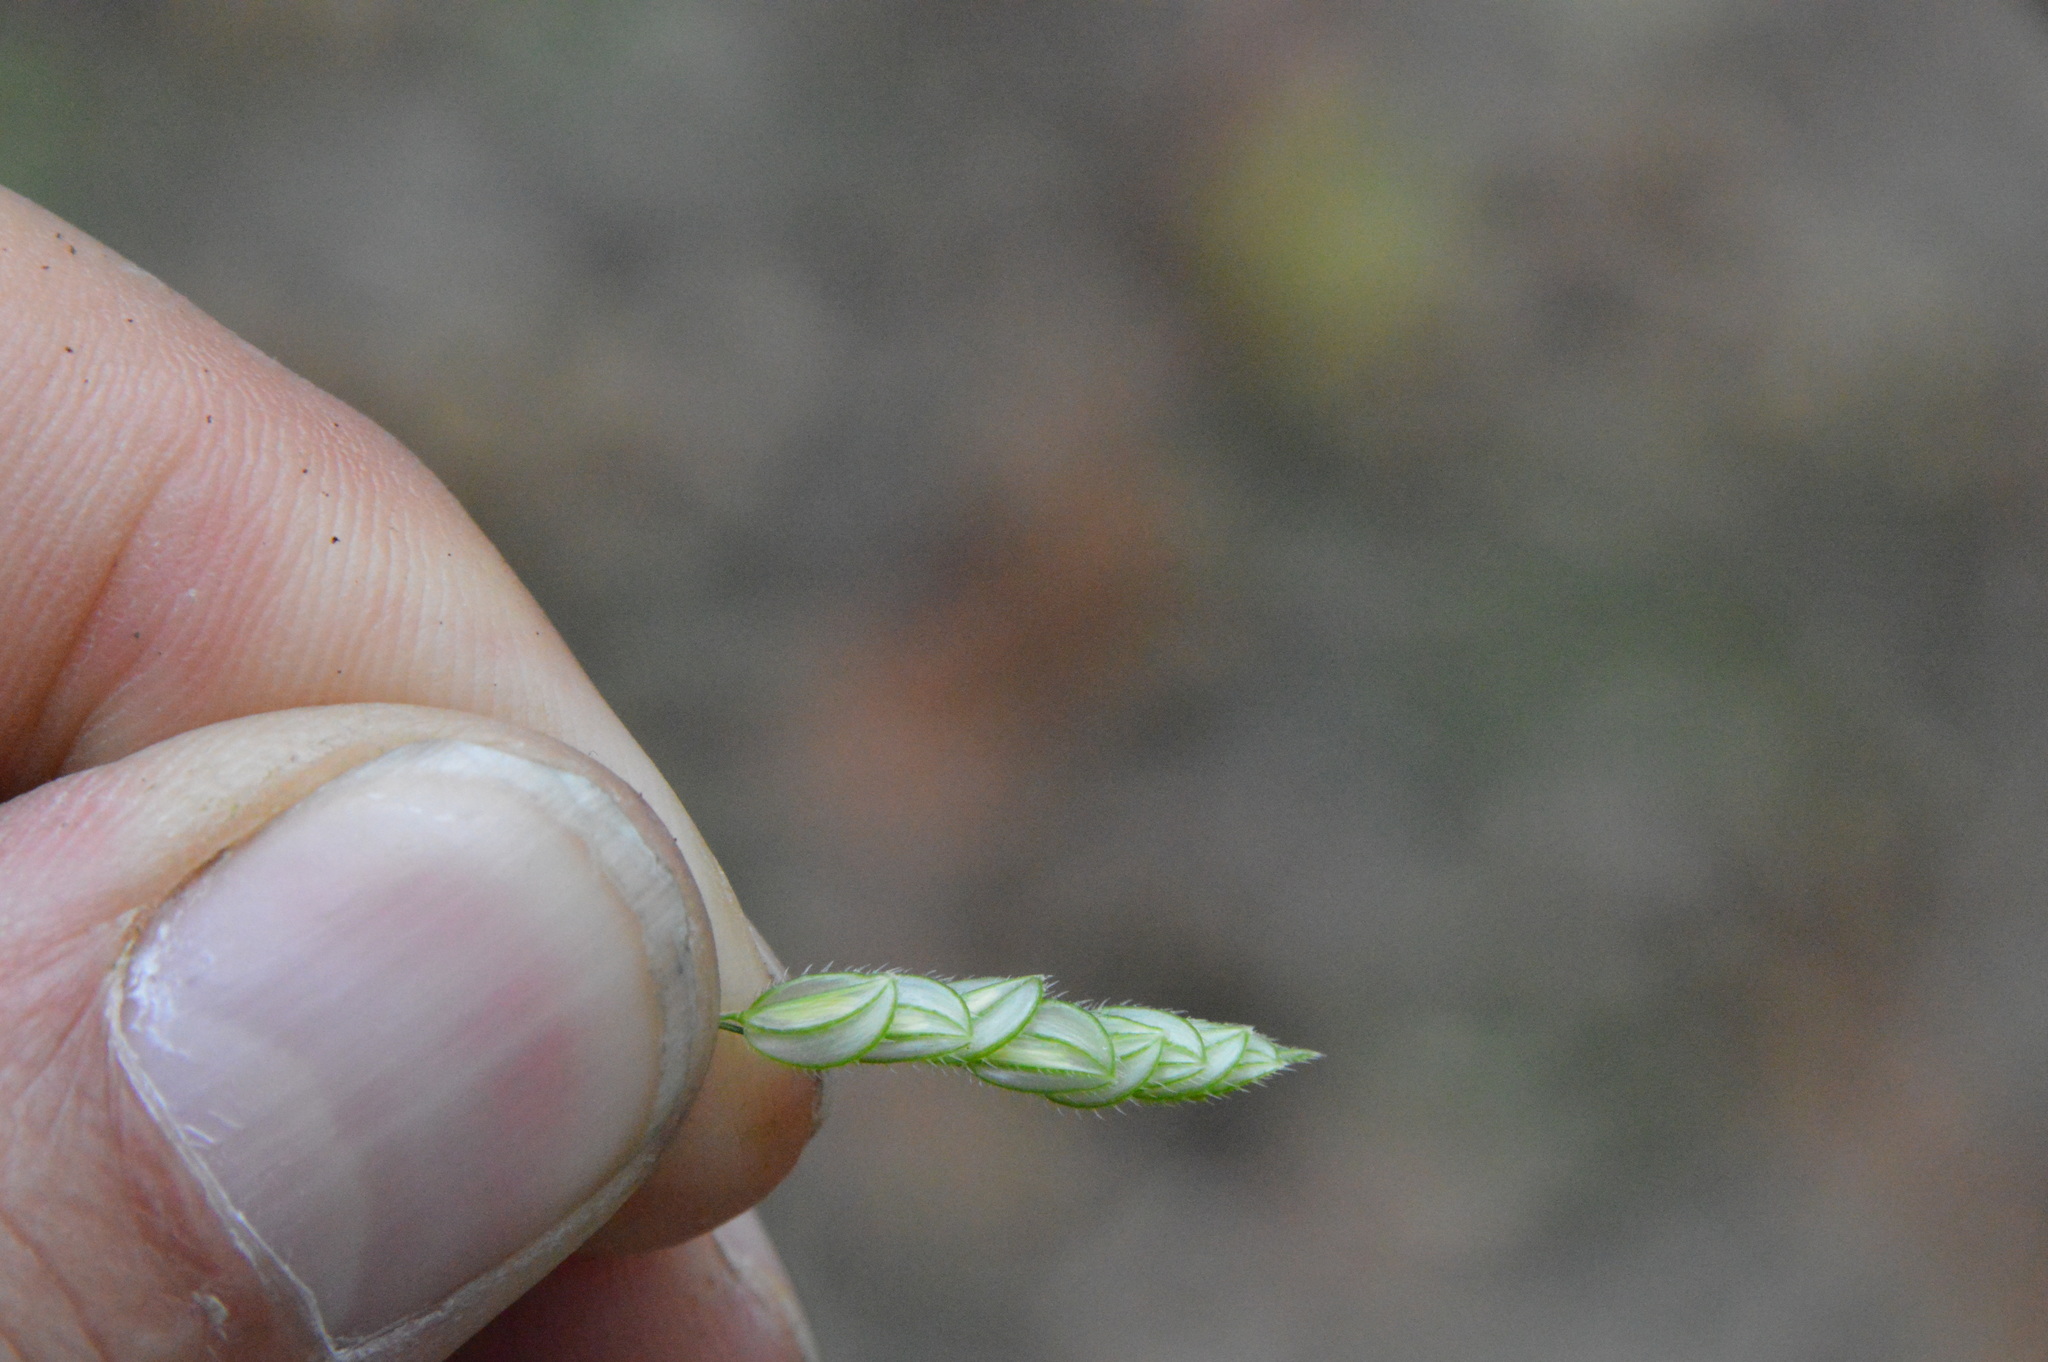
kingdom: Plantae
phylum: Tracheophyta
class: Liliopsida
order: Poales
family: Poaceae
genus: Leersia
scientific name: Leersia lenticularis
